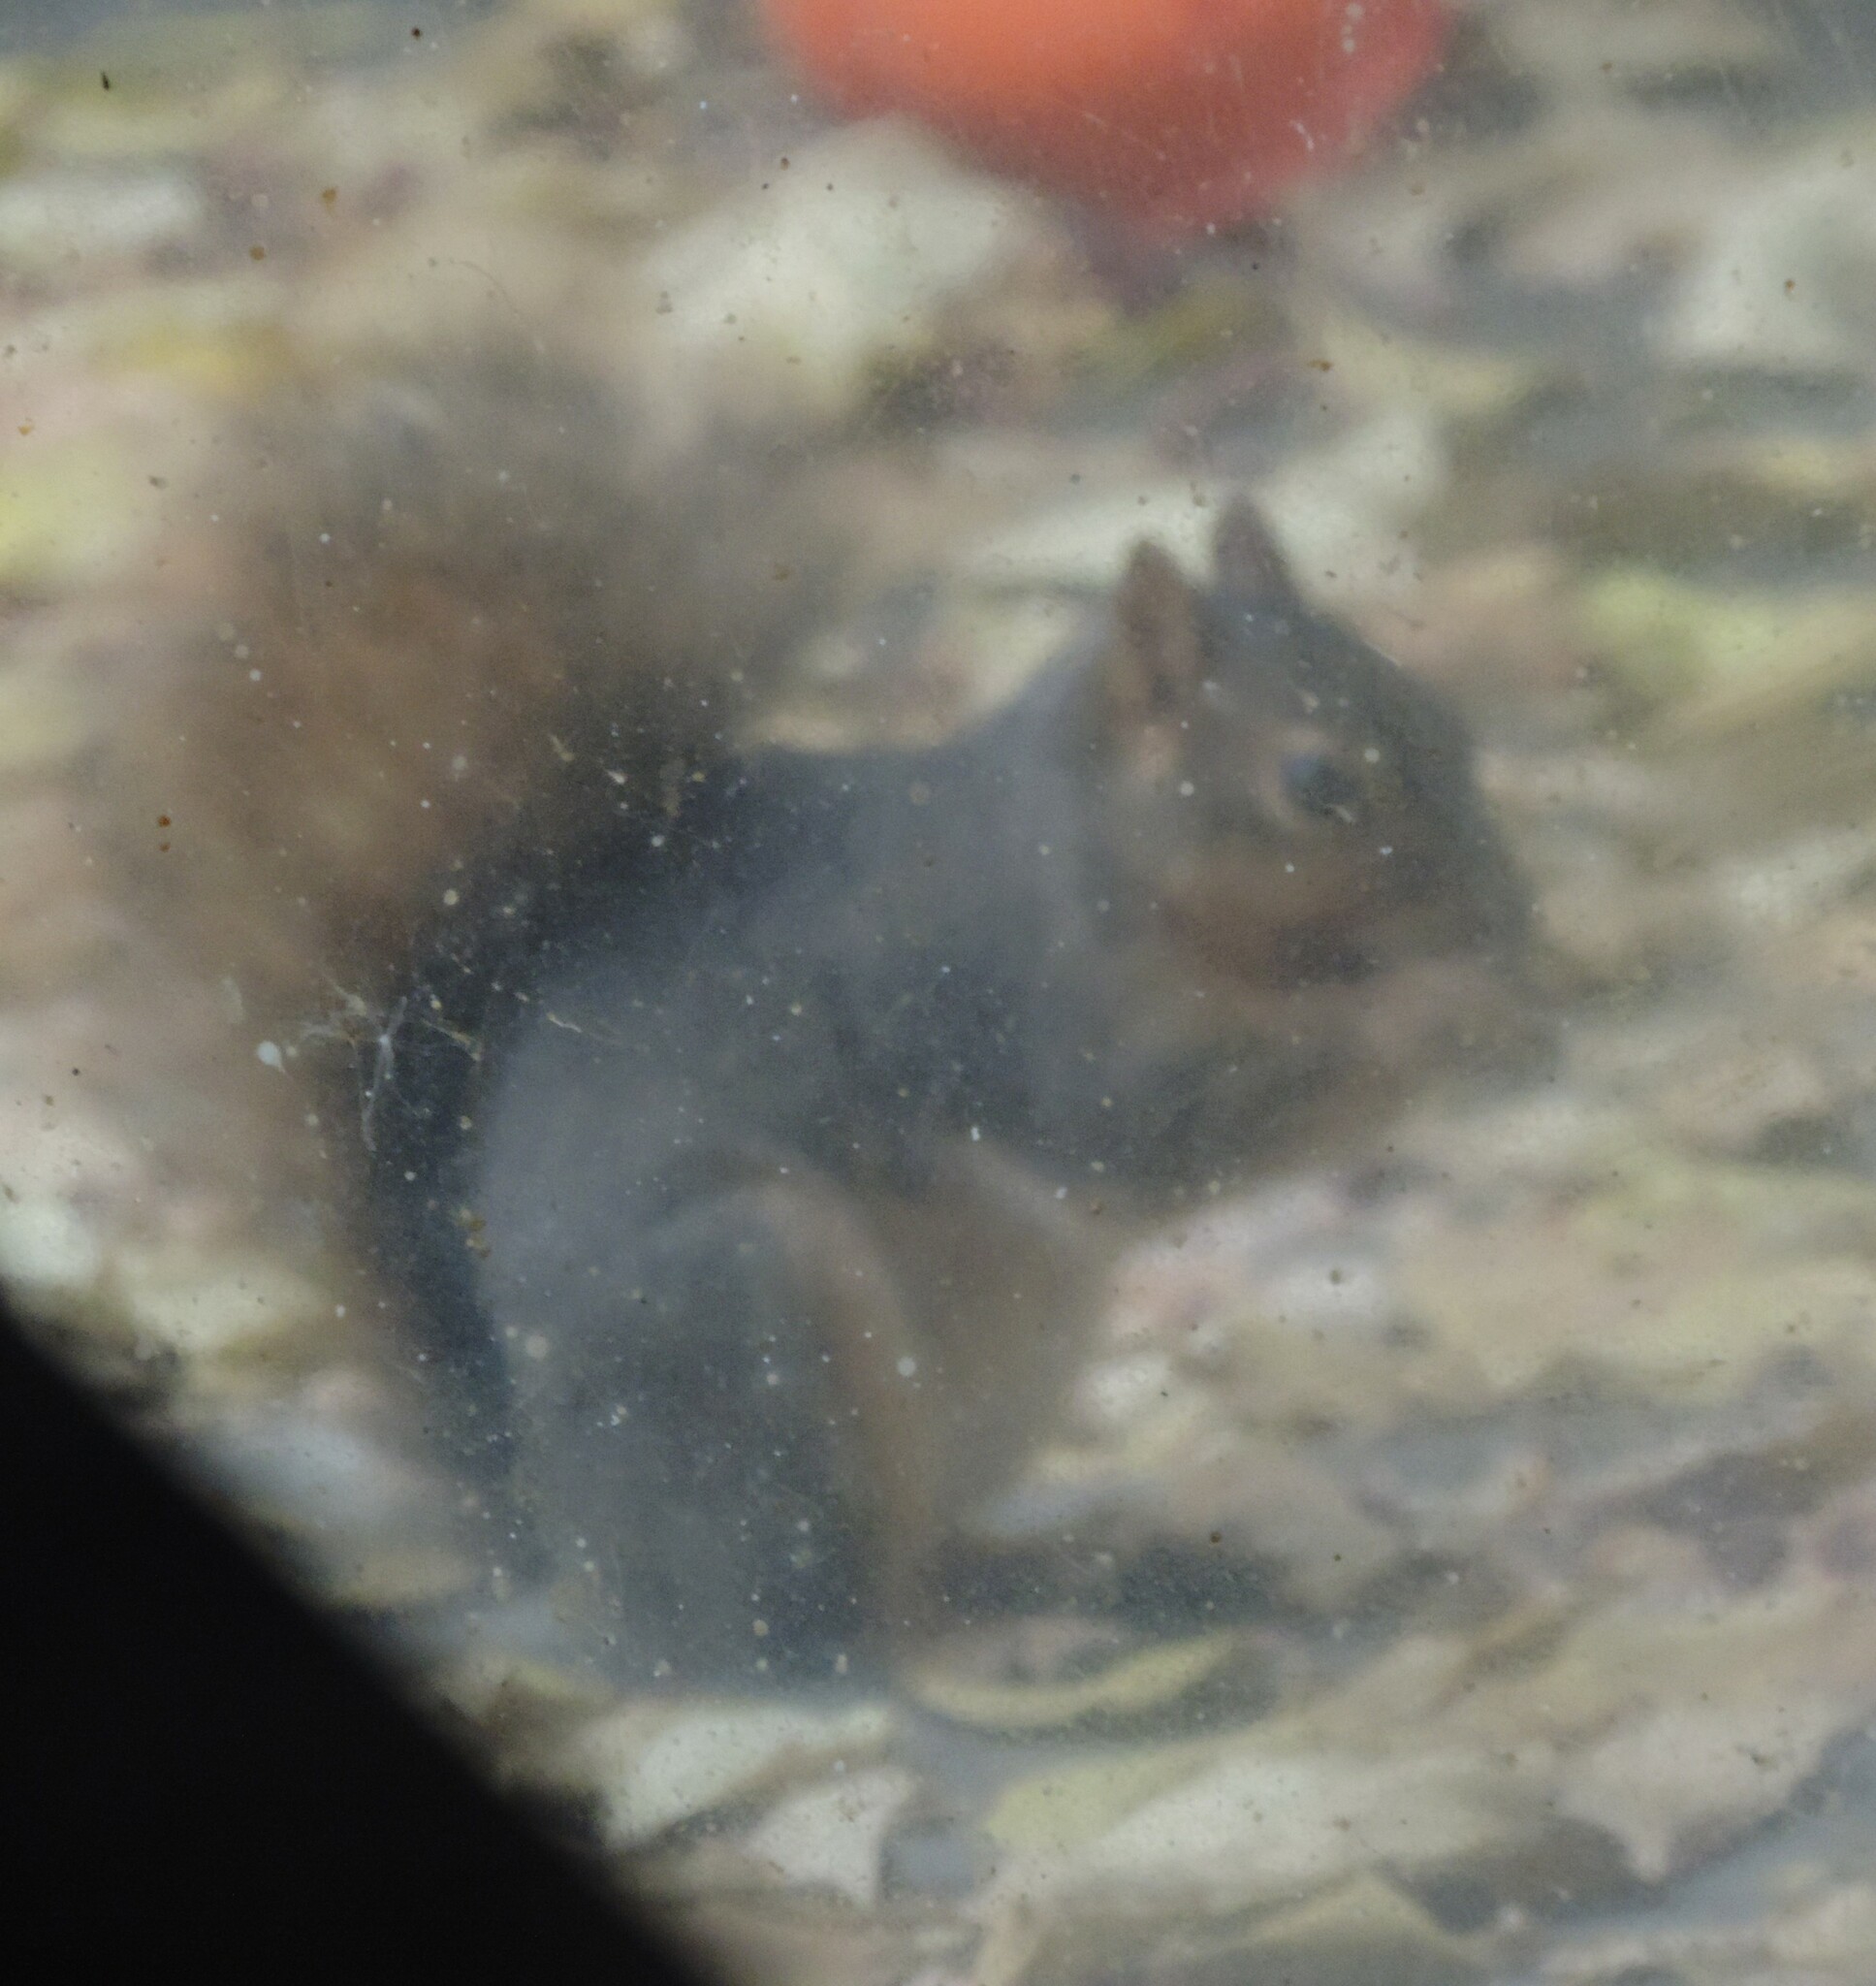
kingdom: Animalia
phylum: Chordata
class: Mammalia
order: Rodentia
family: Sciuridae
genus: Sciurus
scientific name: Sciurus niger
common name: Fox squirrel
